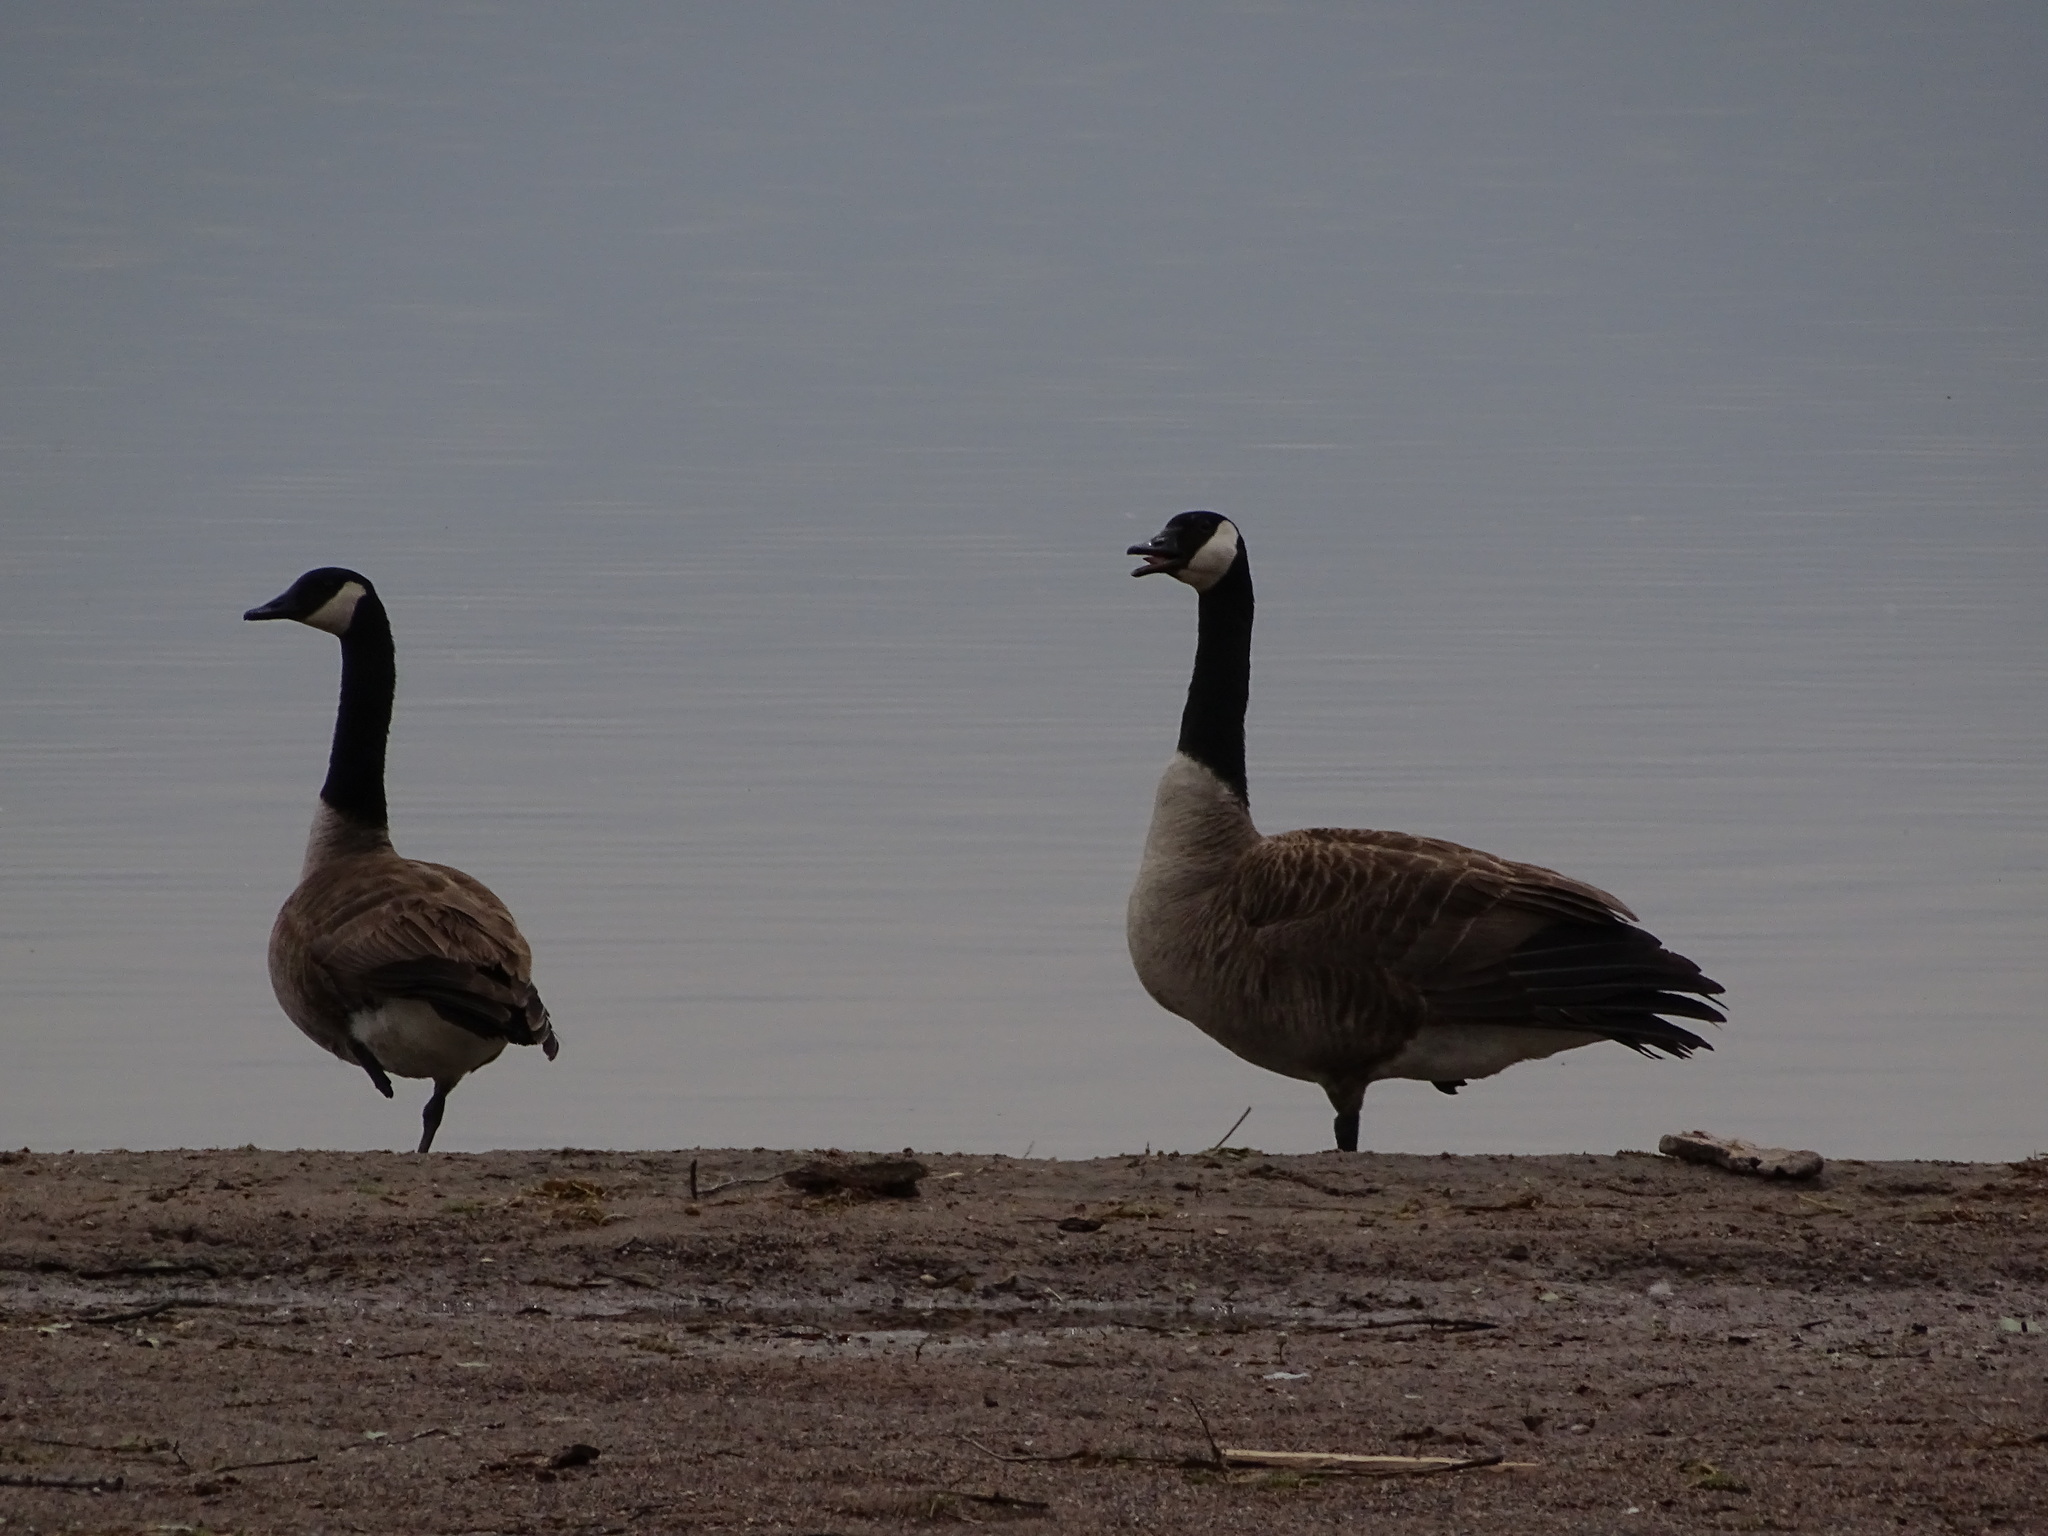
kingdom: Animalia
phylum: Chordata
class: Aves
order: Anseriformes
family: Anatidae
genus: Branta
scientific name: Branta canadensis
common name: Canada goose
